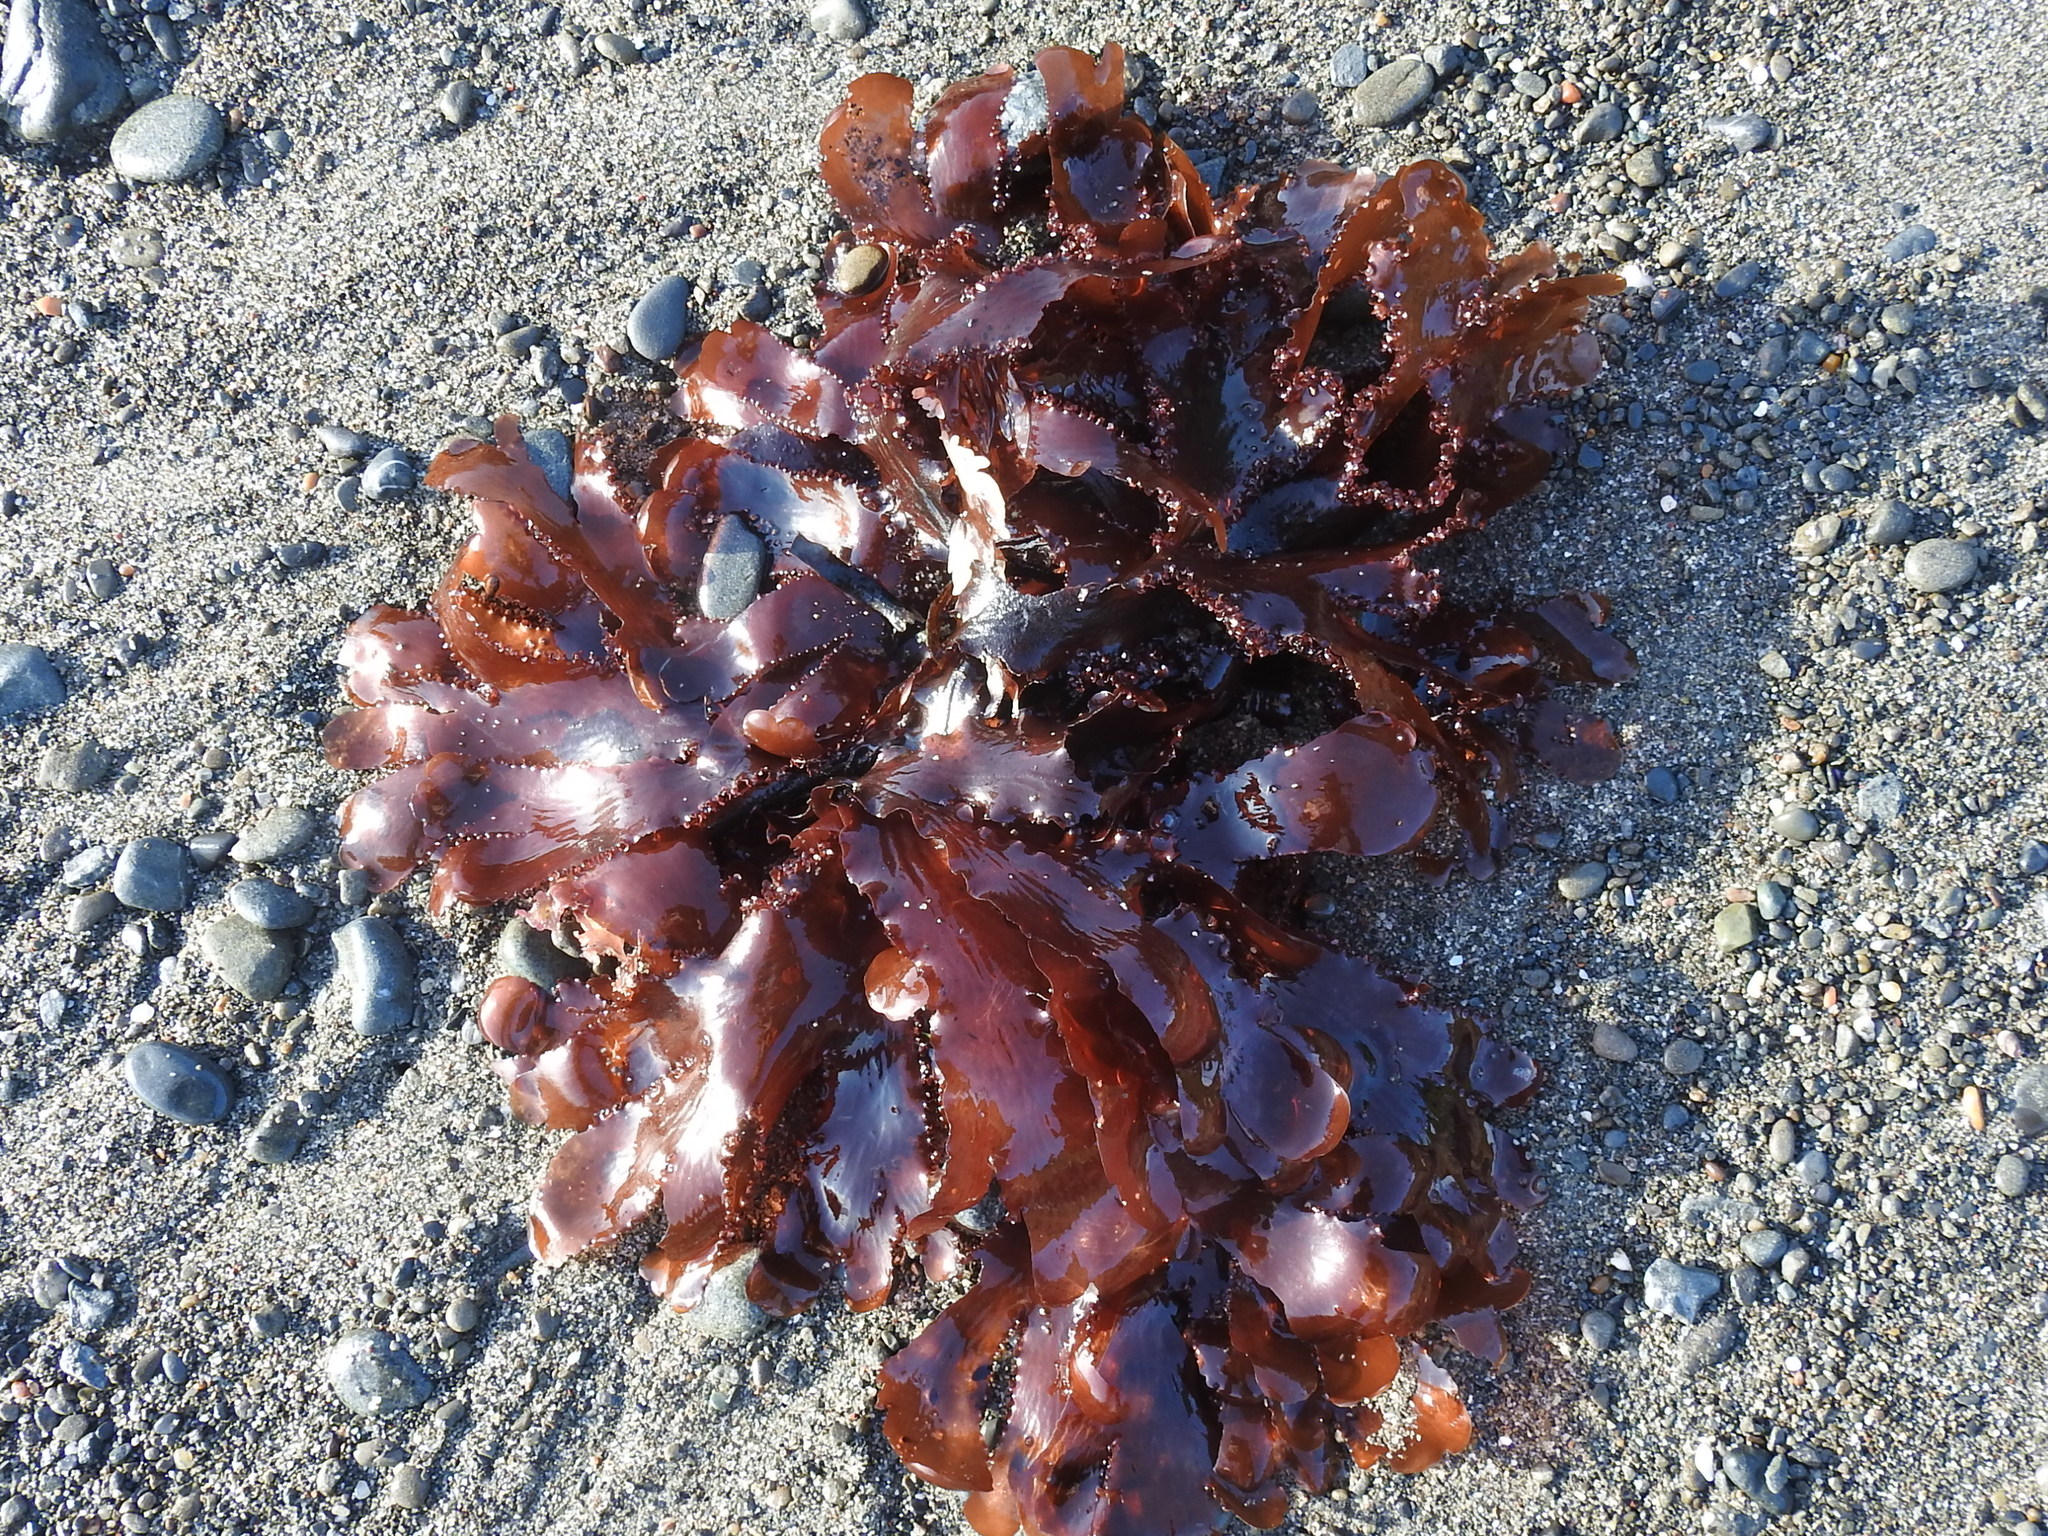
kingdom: Plantae
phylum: Rhodophyta
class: Florideophyceae
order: Ceramiales
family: Delesseriaceae
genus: Cryptopleura
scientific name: Cryptopleura ruprechtiana
